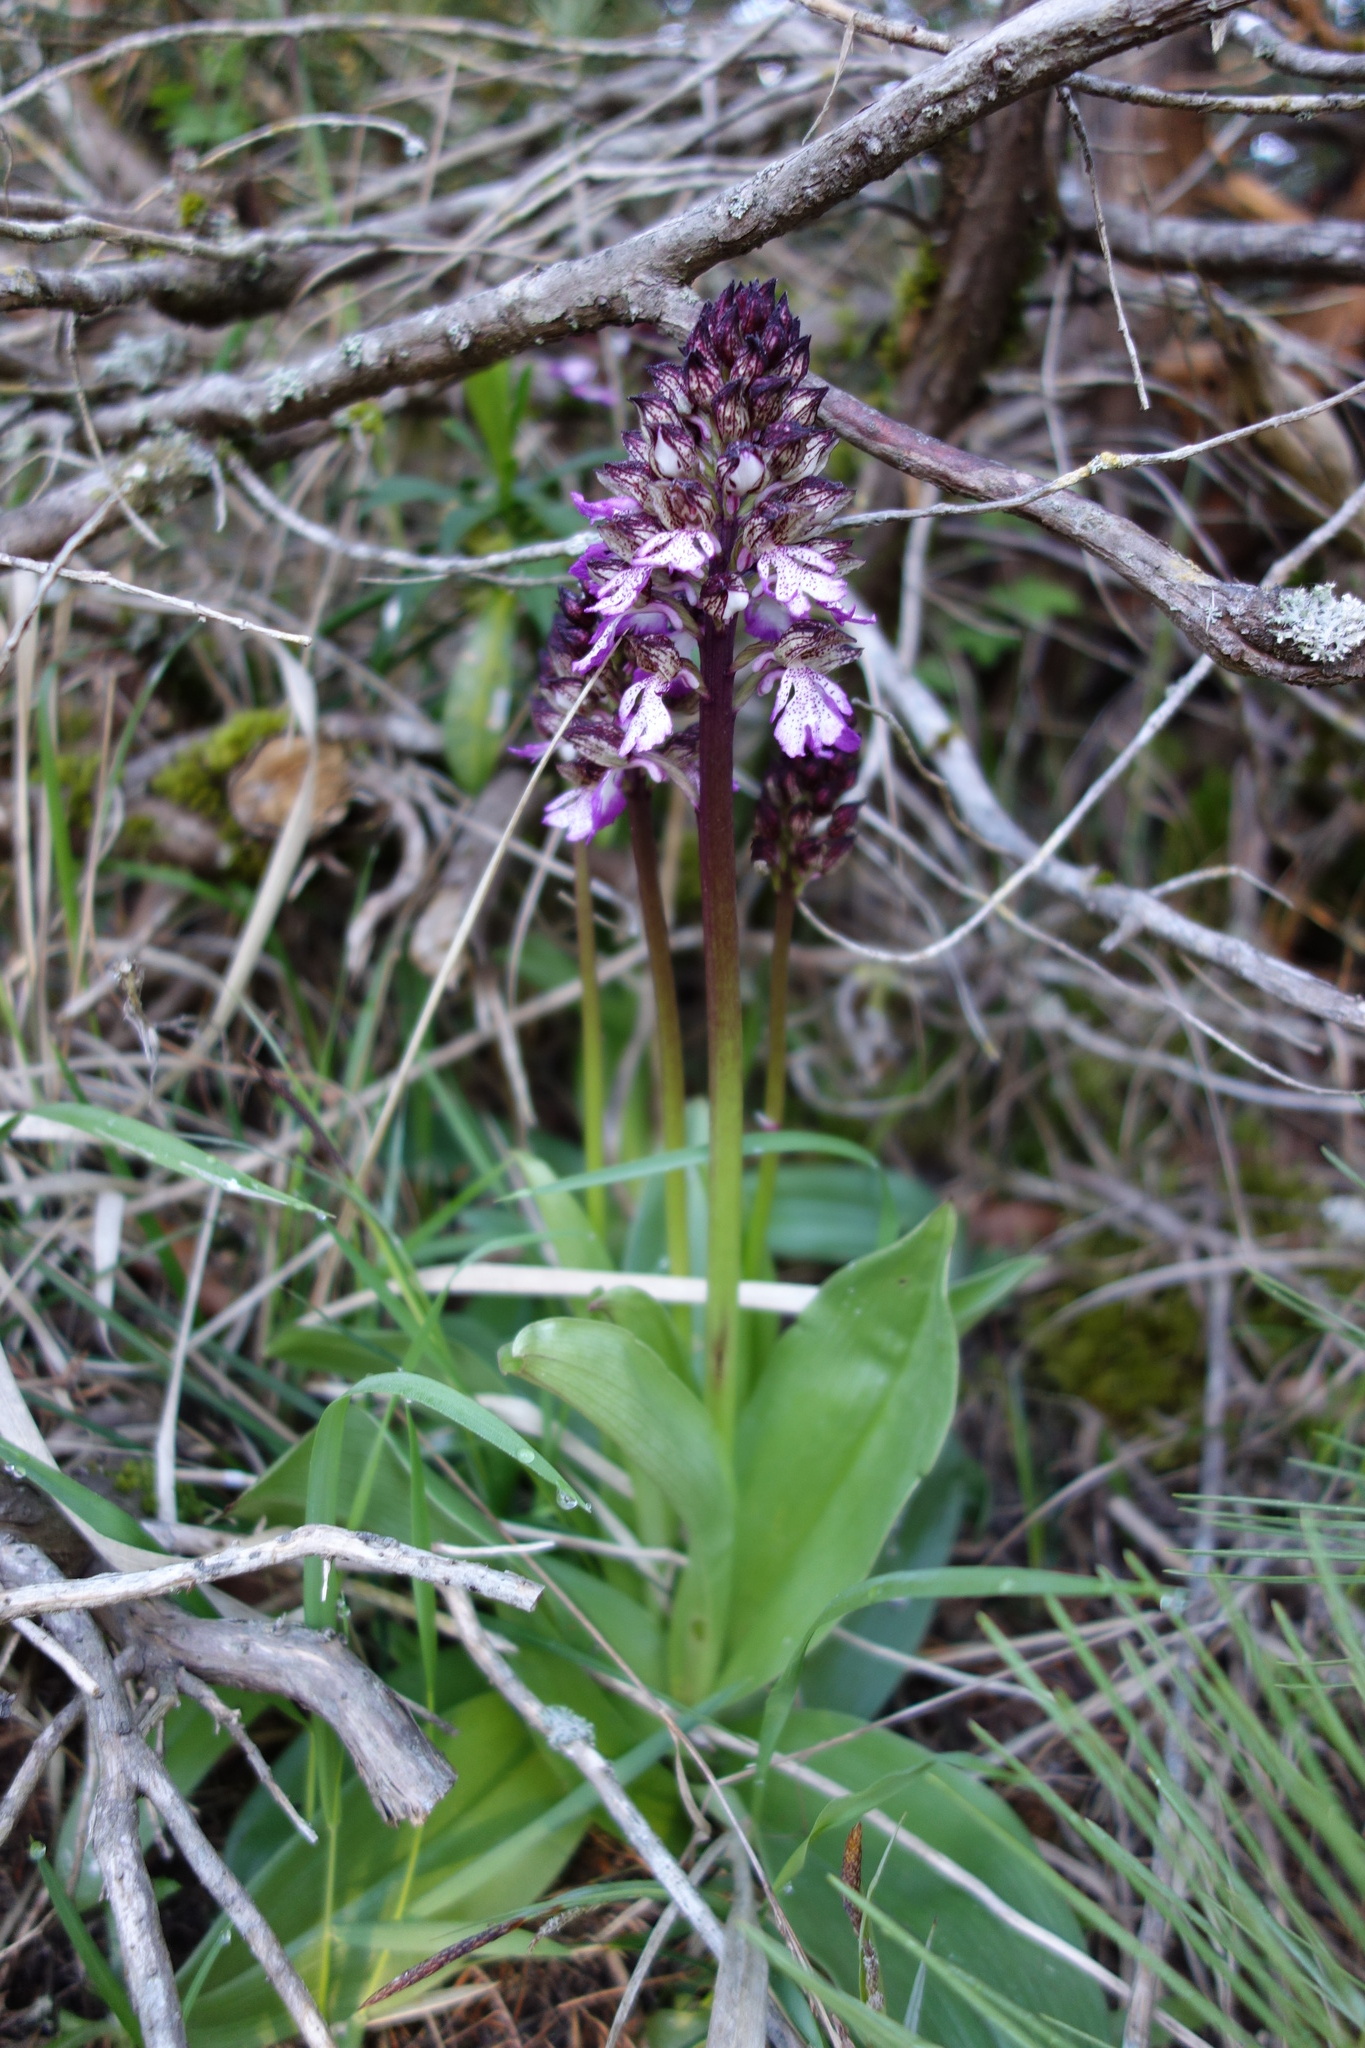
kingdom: Plantae
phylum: Tracheophyta
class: Liliopsida
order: Asparagales
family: Orchidaceae
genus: Orchis
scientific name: Orchis purpurea
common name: Lady orchid
